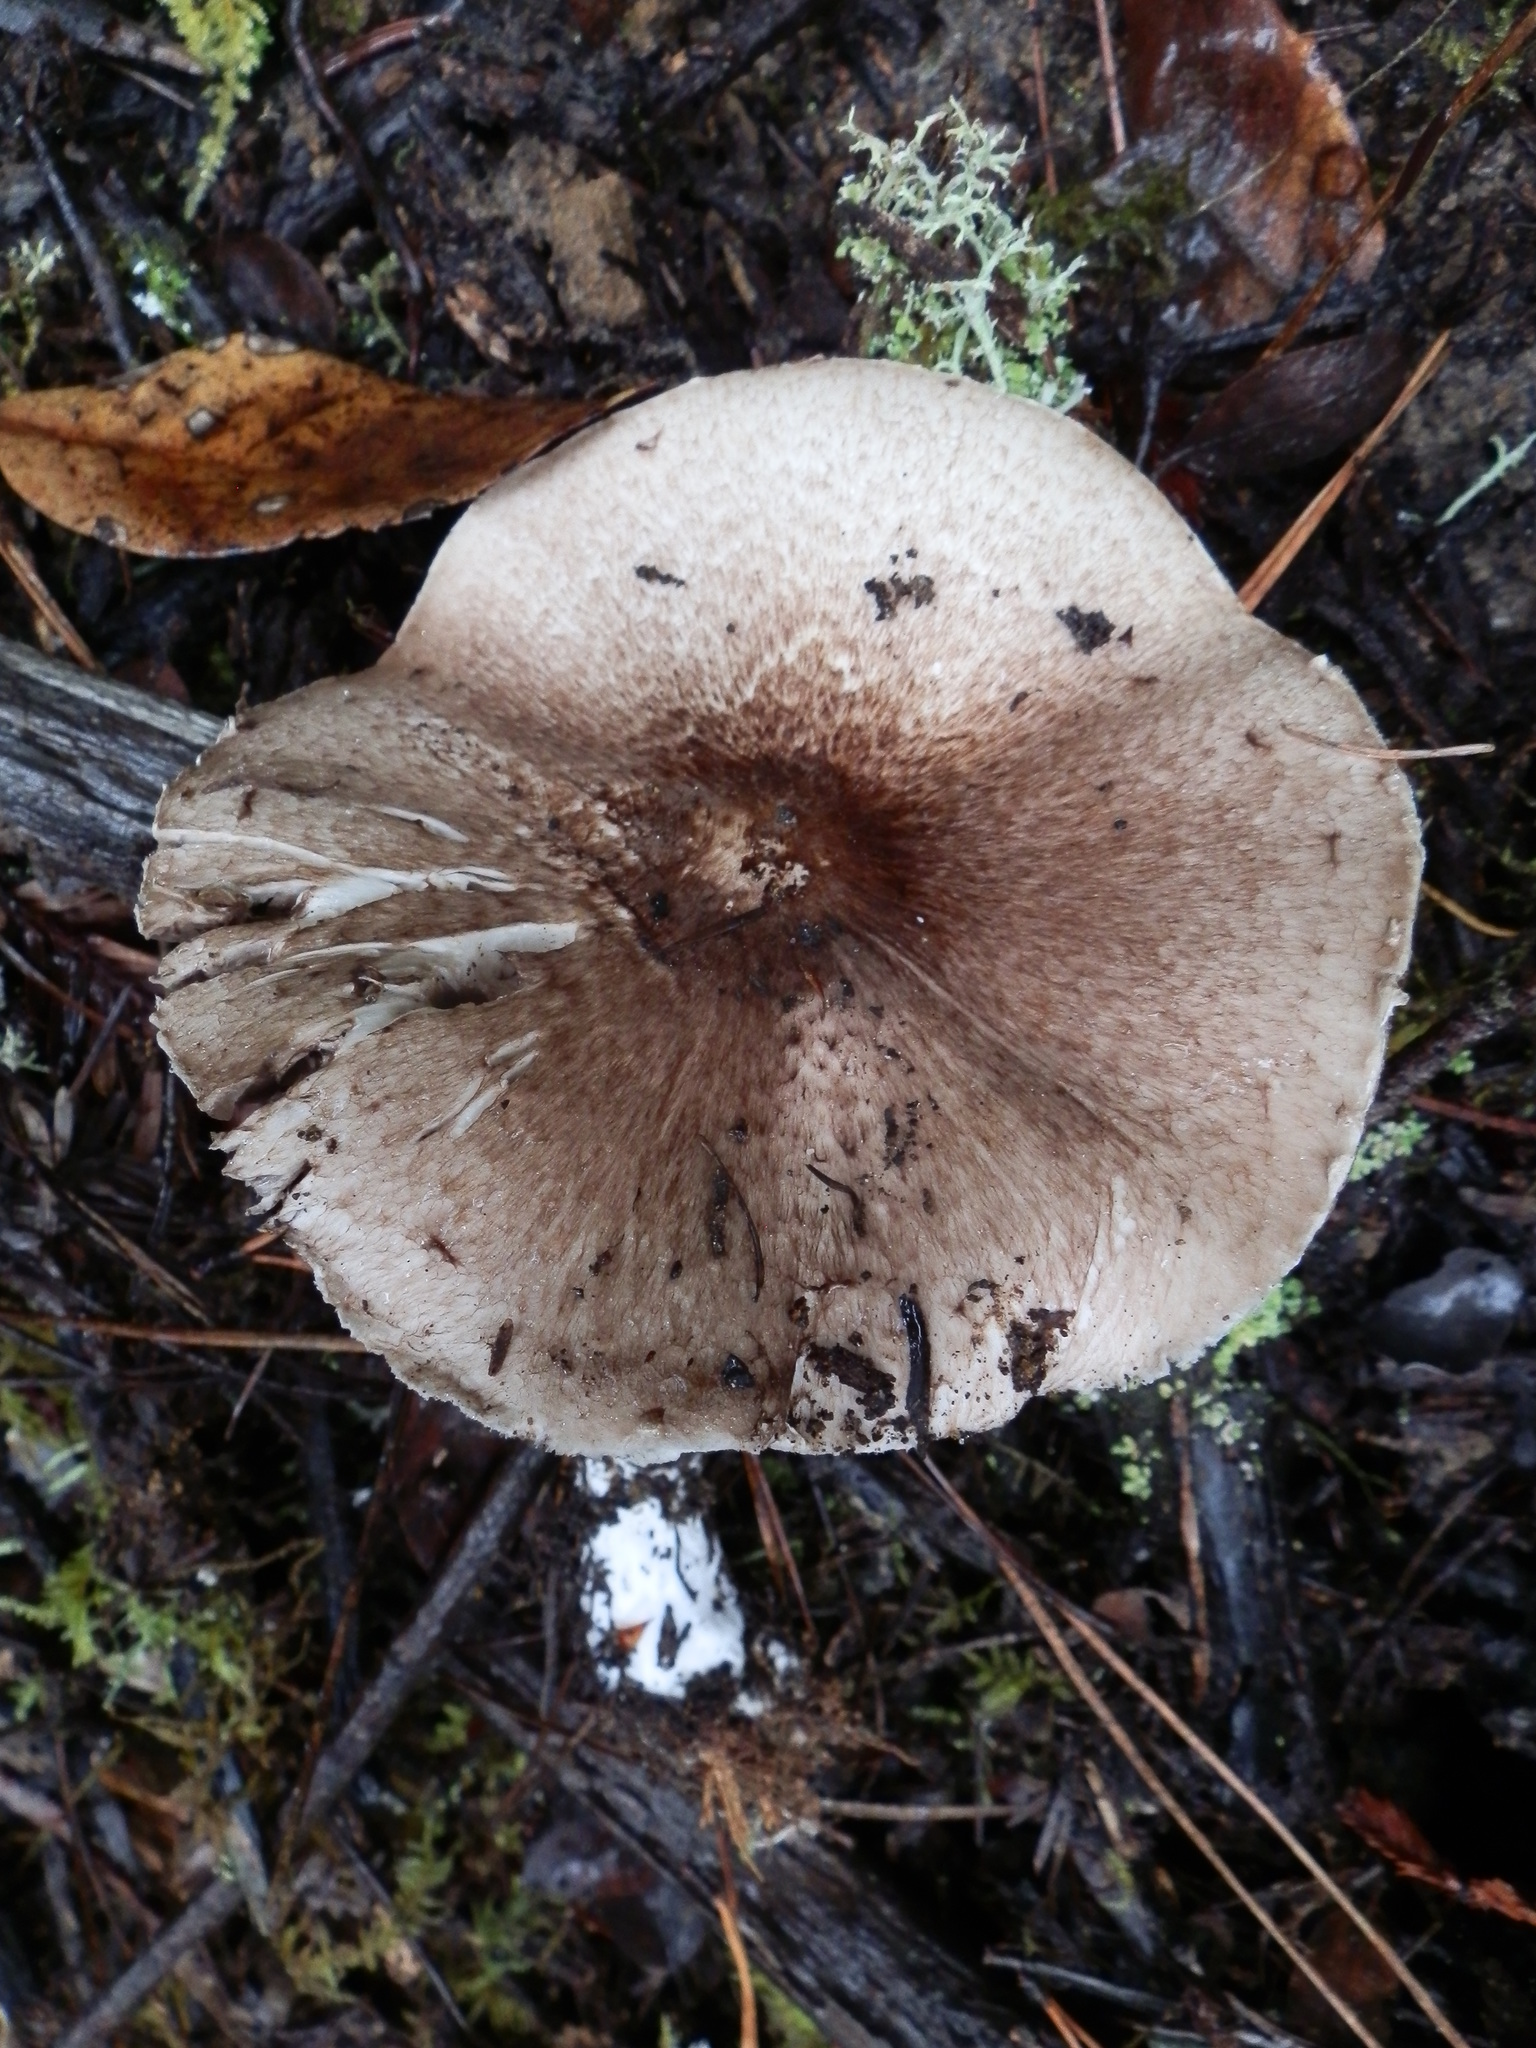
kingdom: Fungi
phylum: Basidiomycota
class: Agaricomycetes
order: Agaricales
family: Agaricaceae
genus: Agaricus
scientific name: Agaricus subrutilescens
